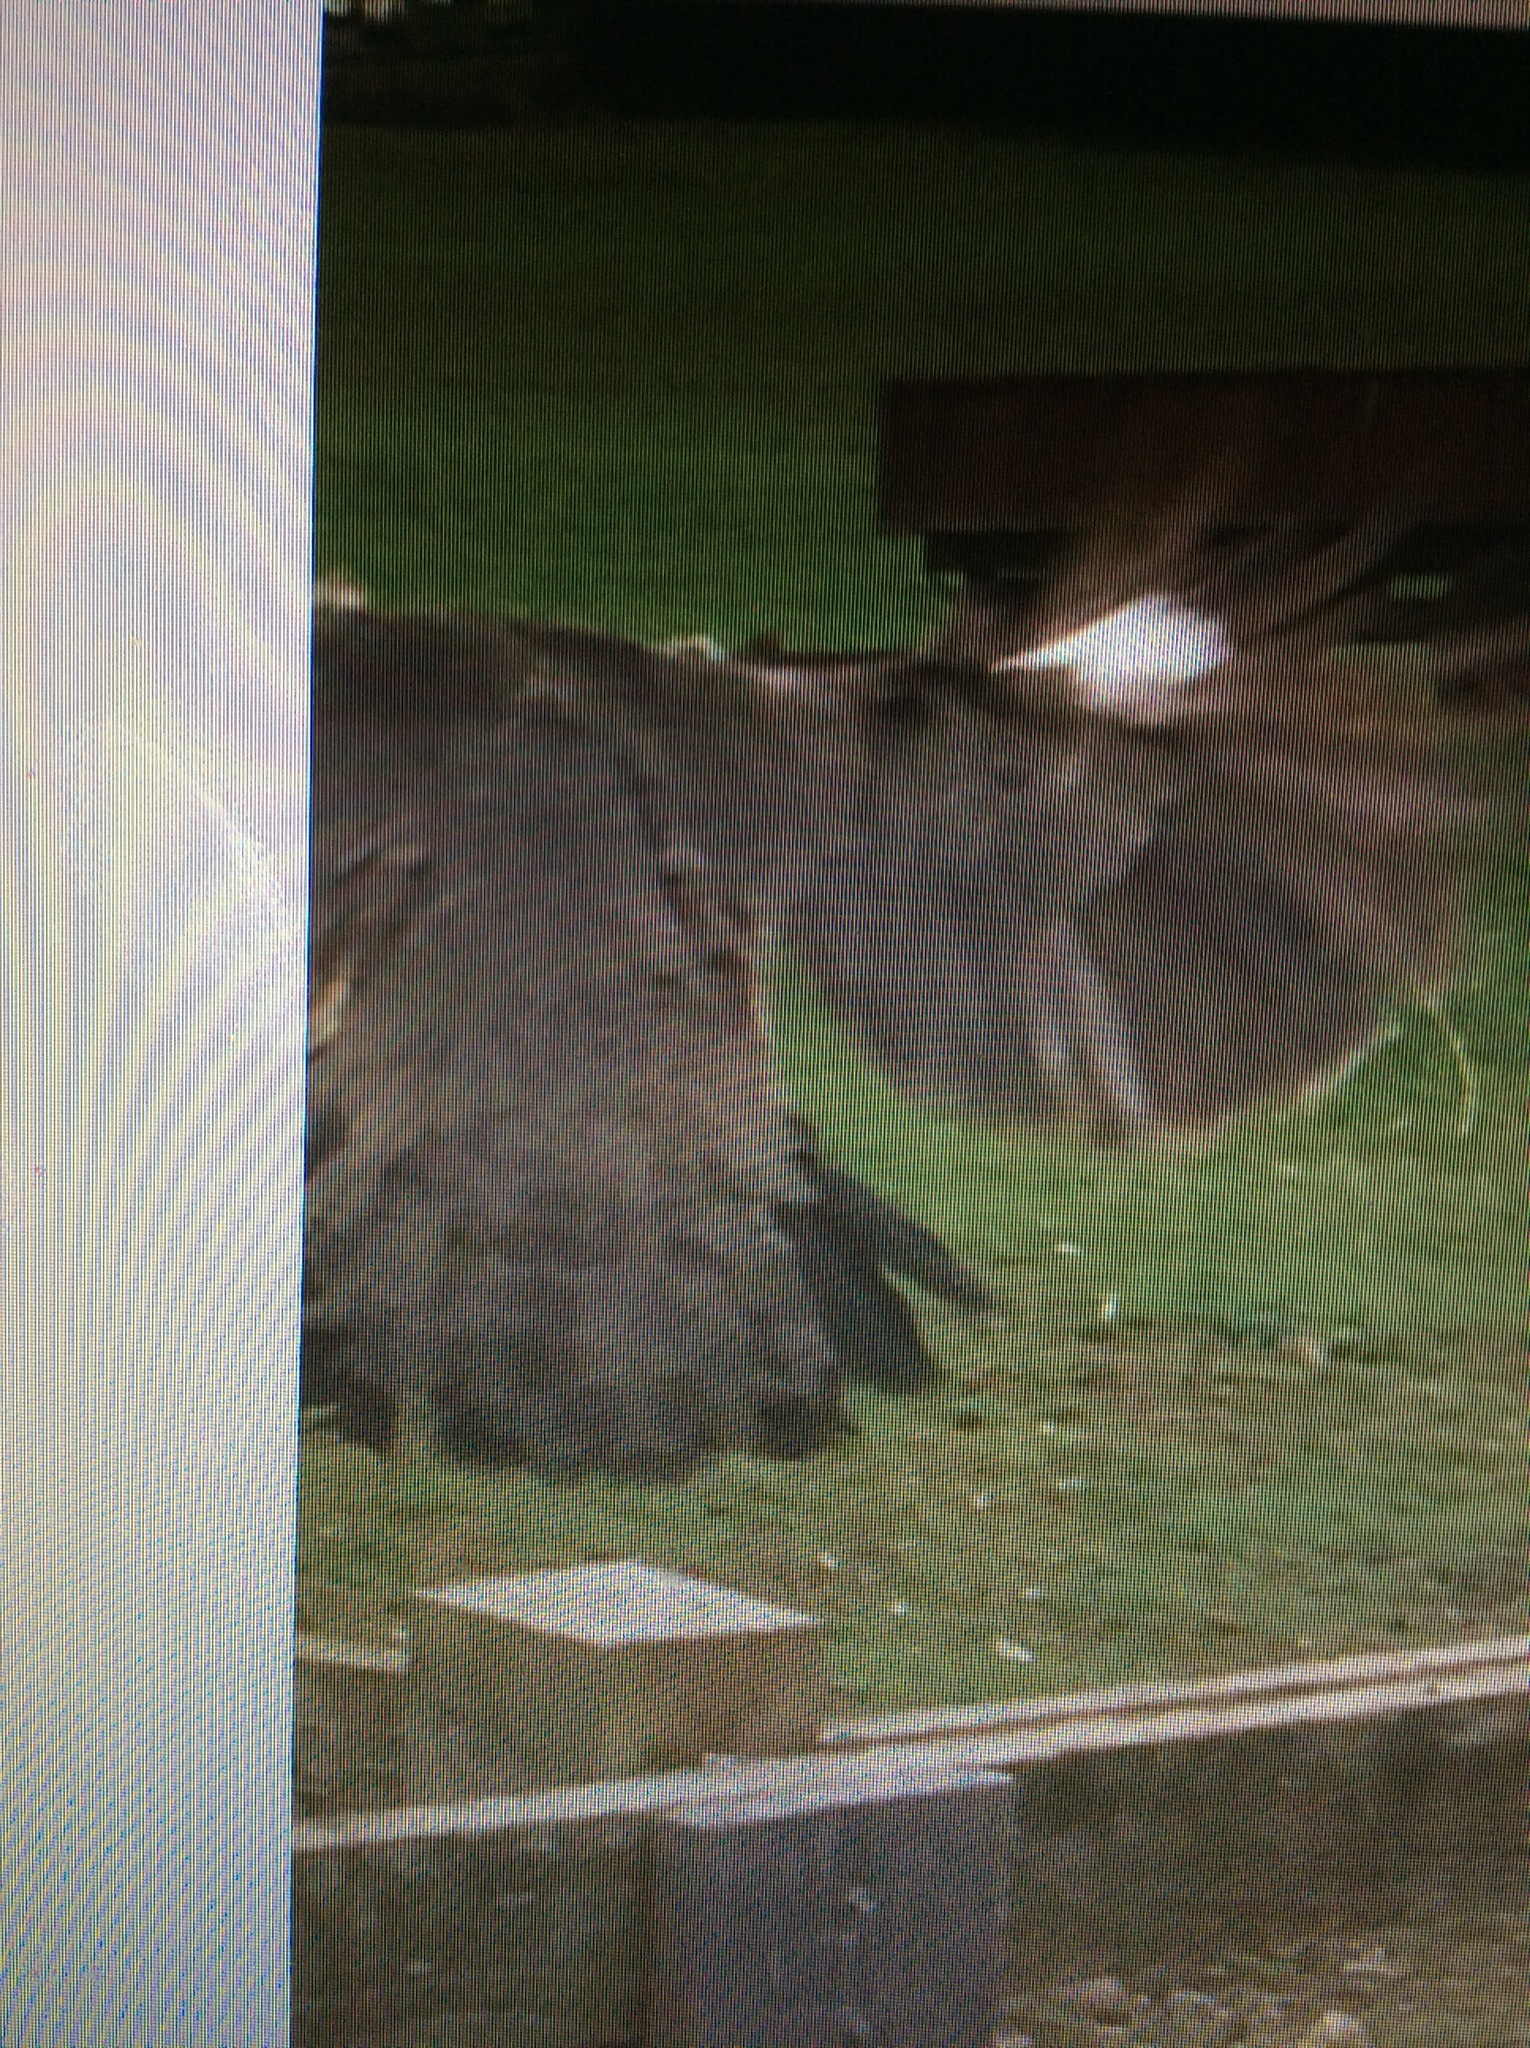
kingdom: Animalia
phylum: Chordata
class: Aves
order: Accipitriformes
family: Accipitridae
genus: Accipiter
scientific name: Accipiter nisus
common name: Eurasian sparrowhawk
